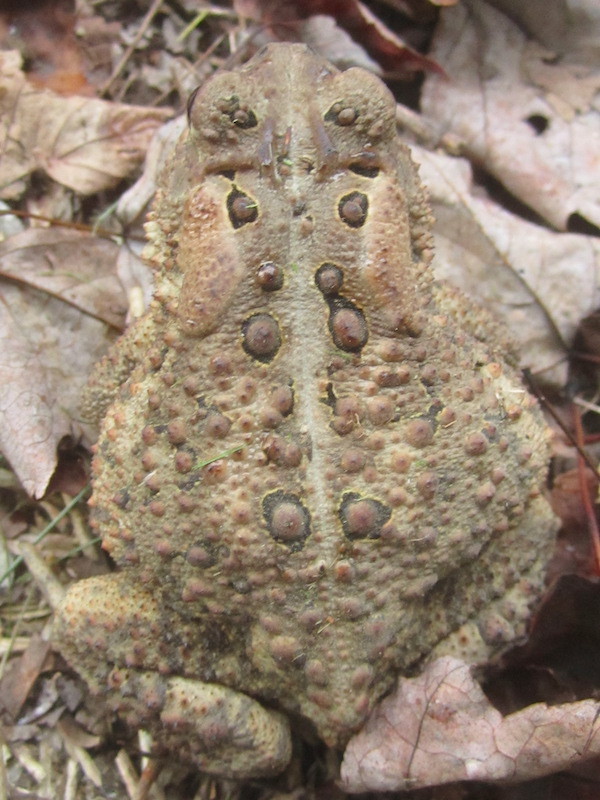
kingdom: Animalia
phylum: Chordata
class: Amphibia
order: Anura
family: Bufonidae
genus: Anaxyrus
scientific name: Anaxyrus americanus
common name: American toad
